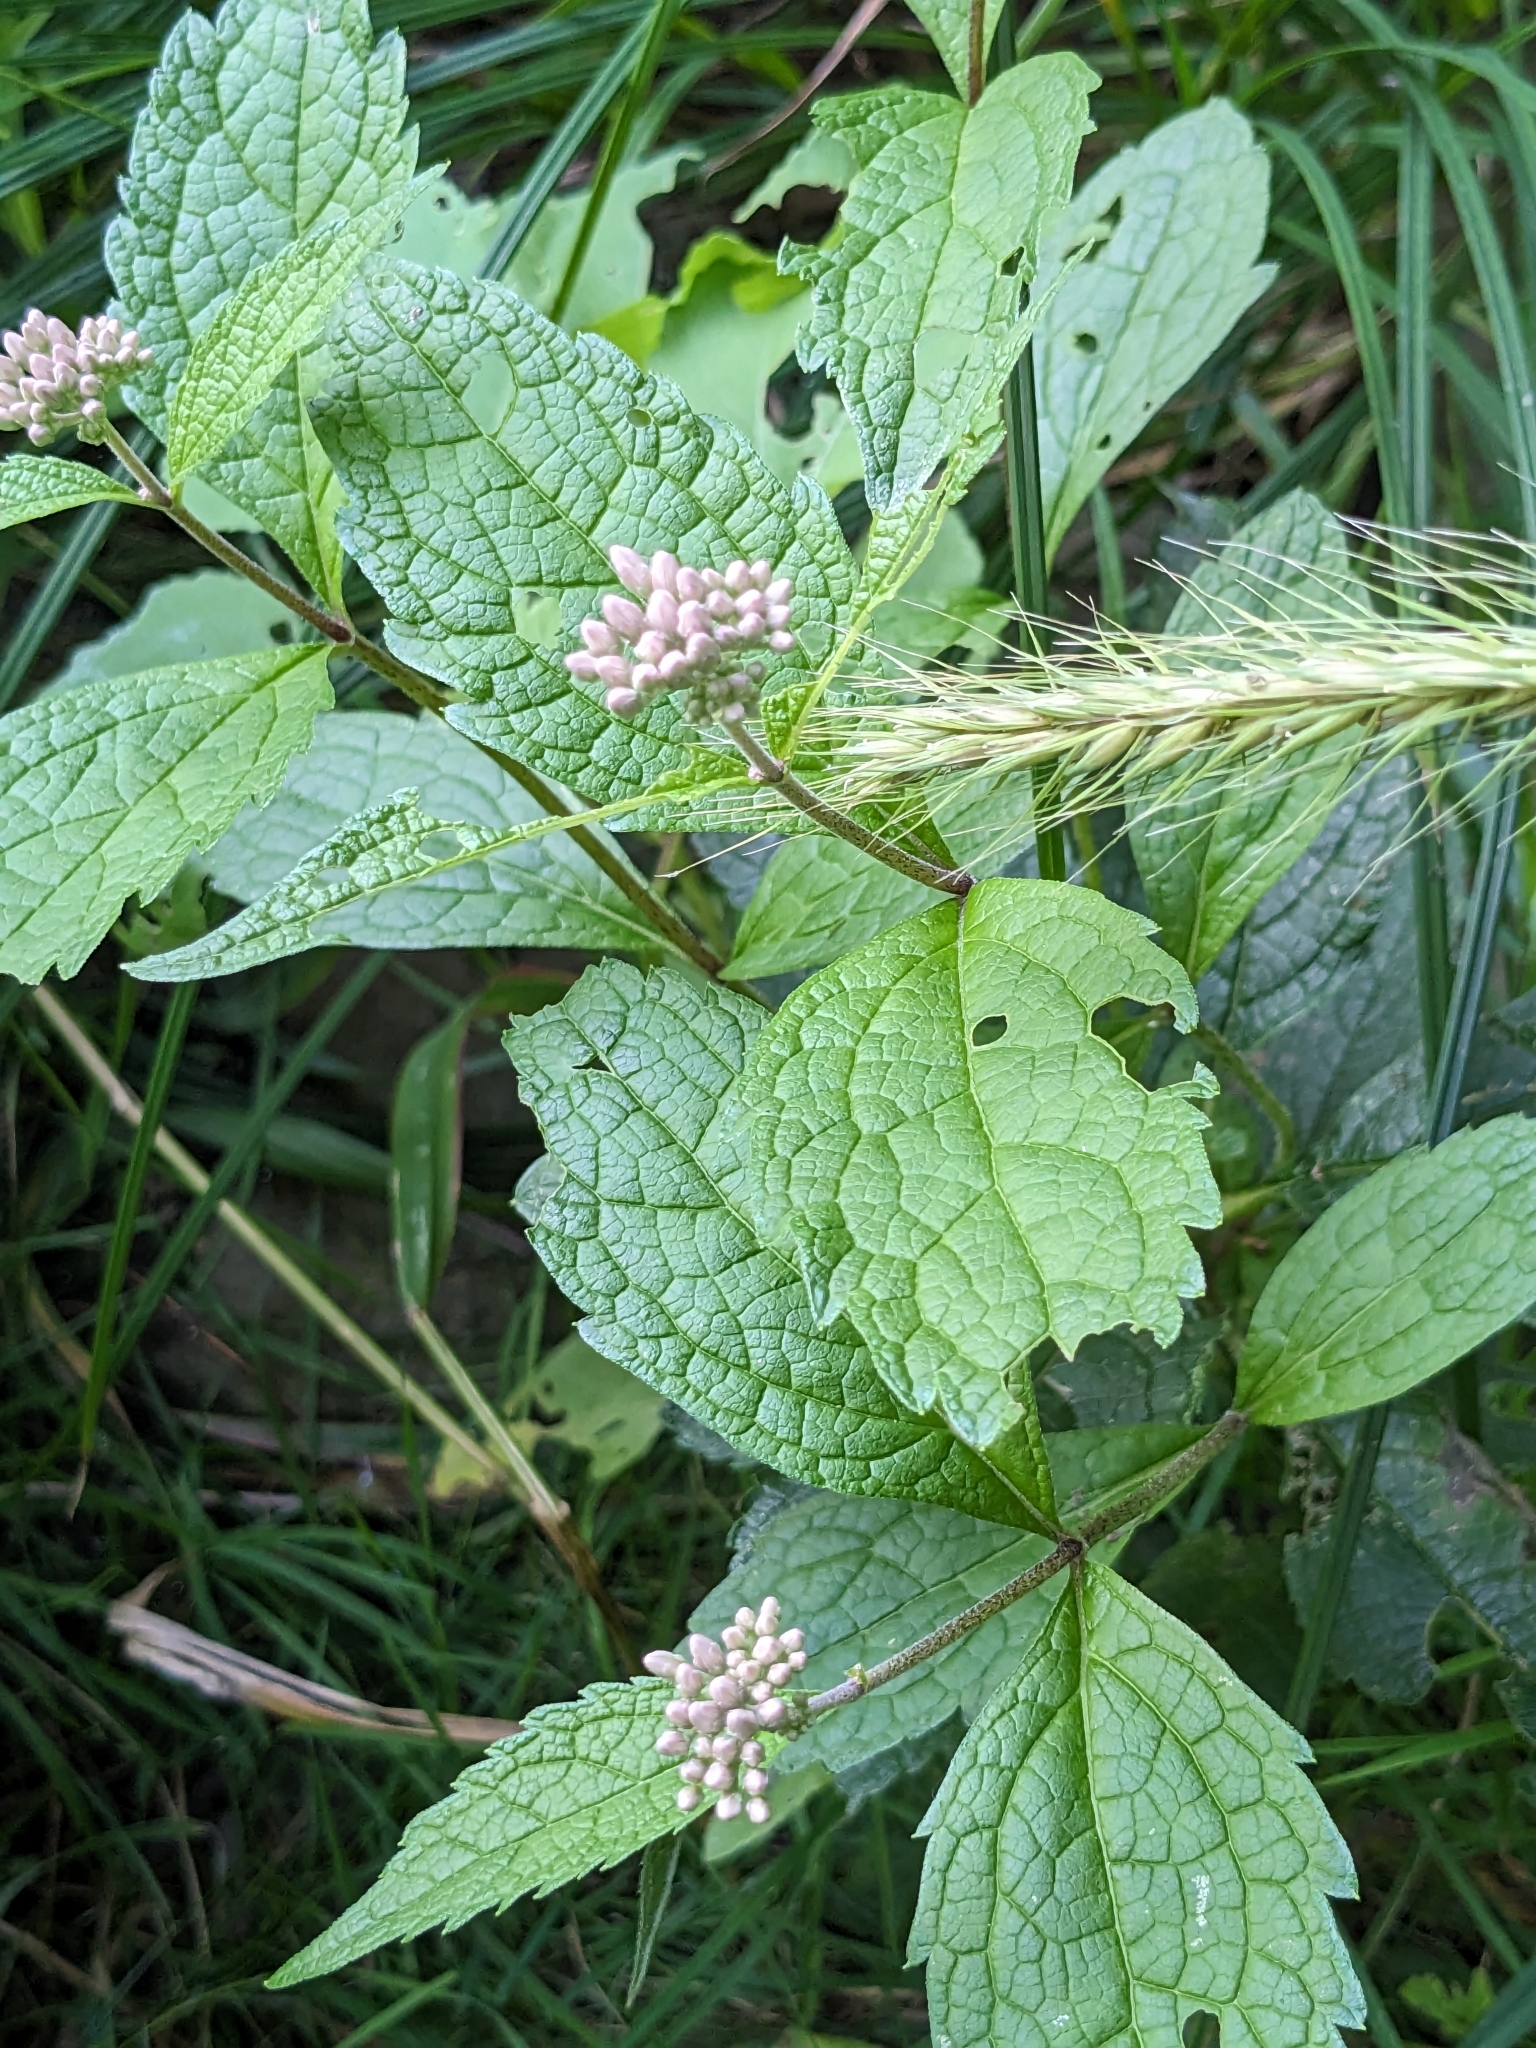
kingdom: Plantae
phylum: Tracheophyta
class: Magnoliopsida
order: Asterales
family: Asteraceae
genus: Eutrochium
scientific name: Eutrochium maculatum
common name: Spotted joe pye weed
